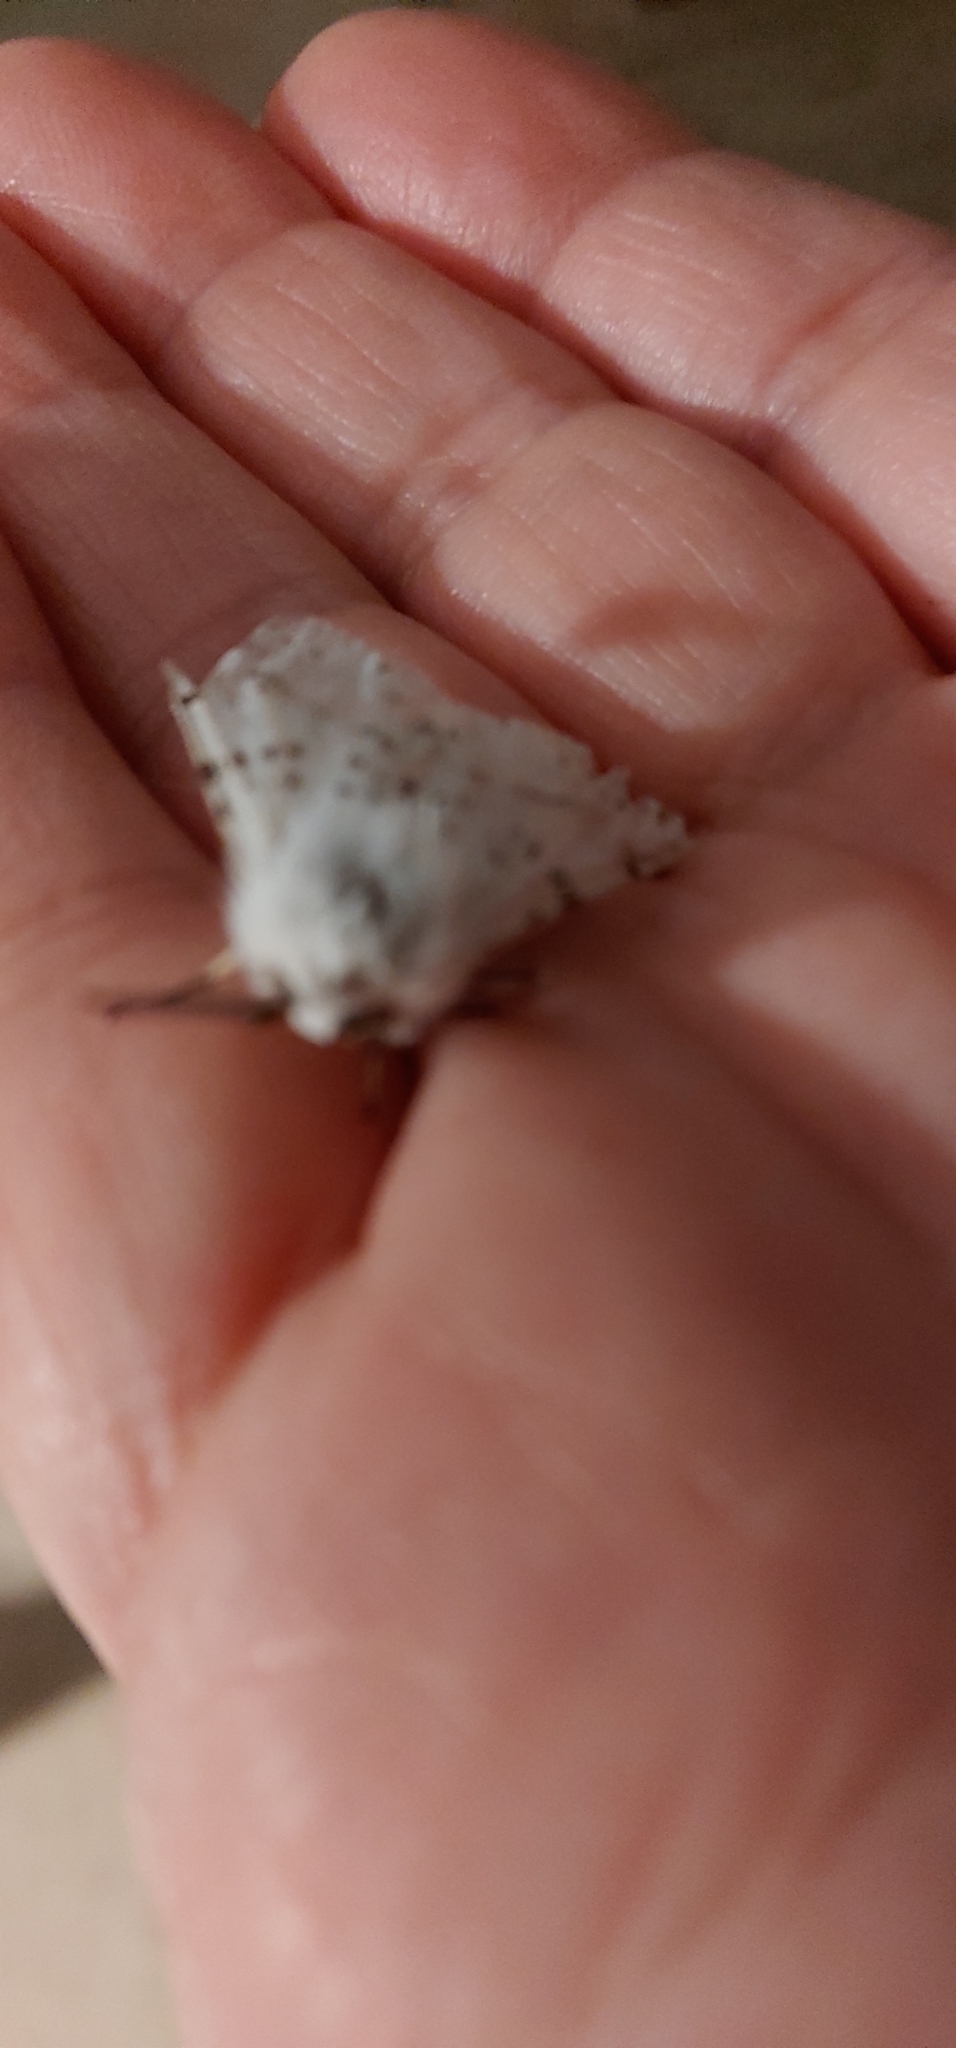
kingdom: Animalia
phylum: Arthropoda
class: Insecta
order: Lepidoptera
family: Erebidae
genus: Estigmene
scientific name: Estigmene acrea
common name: Salt marsh moth
